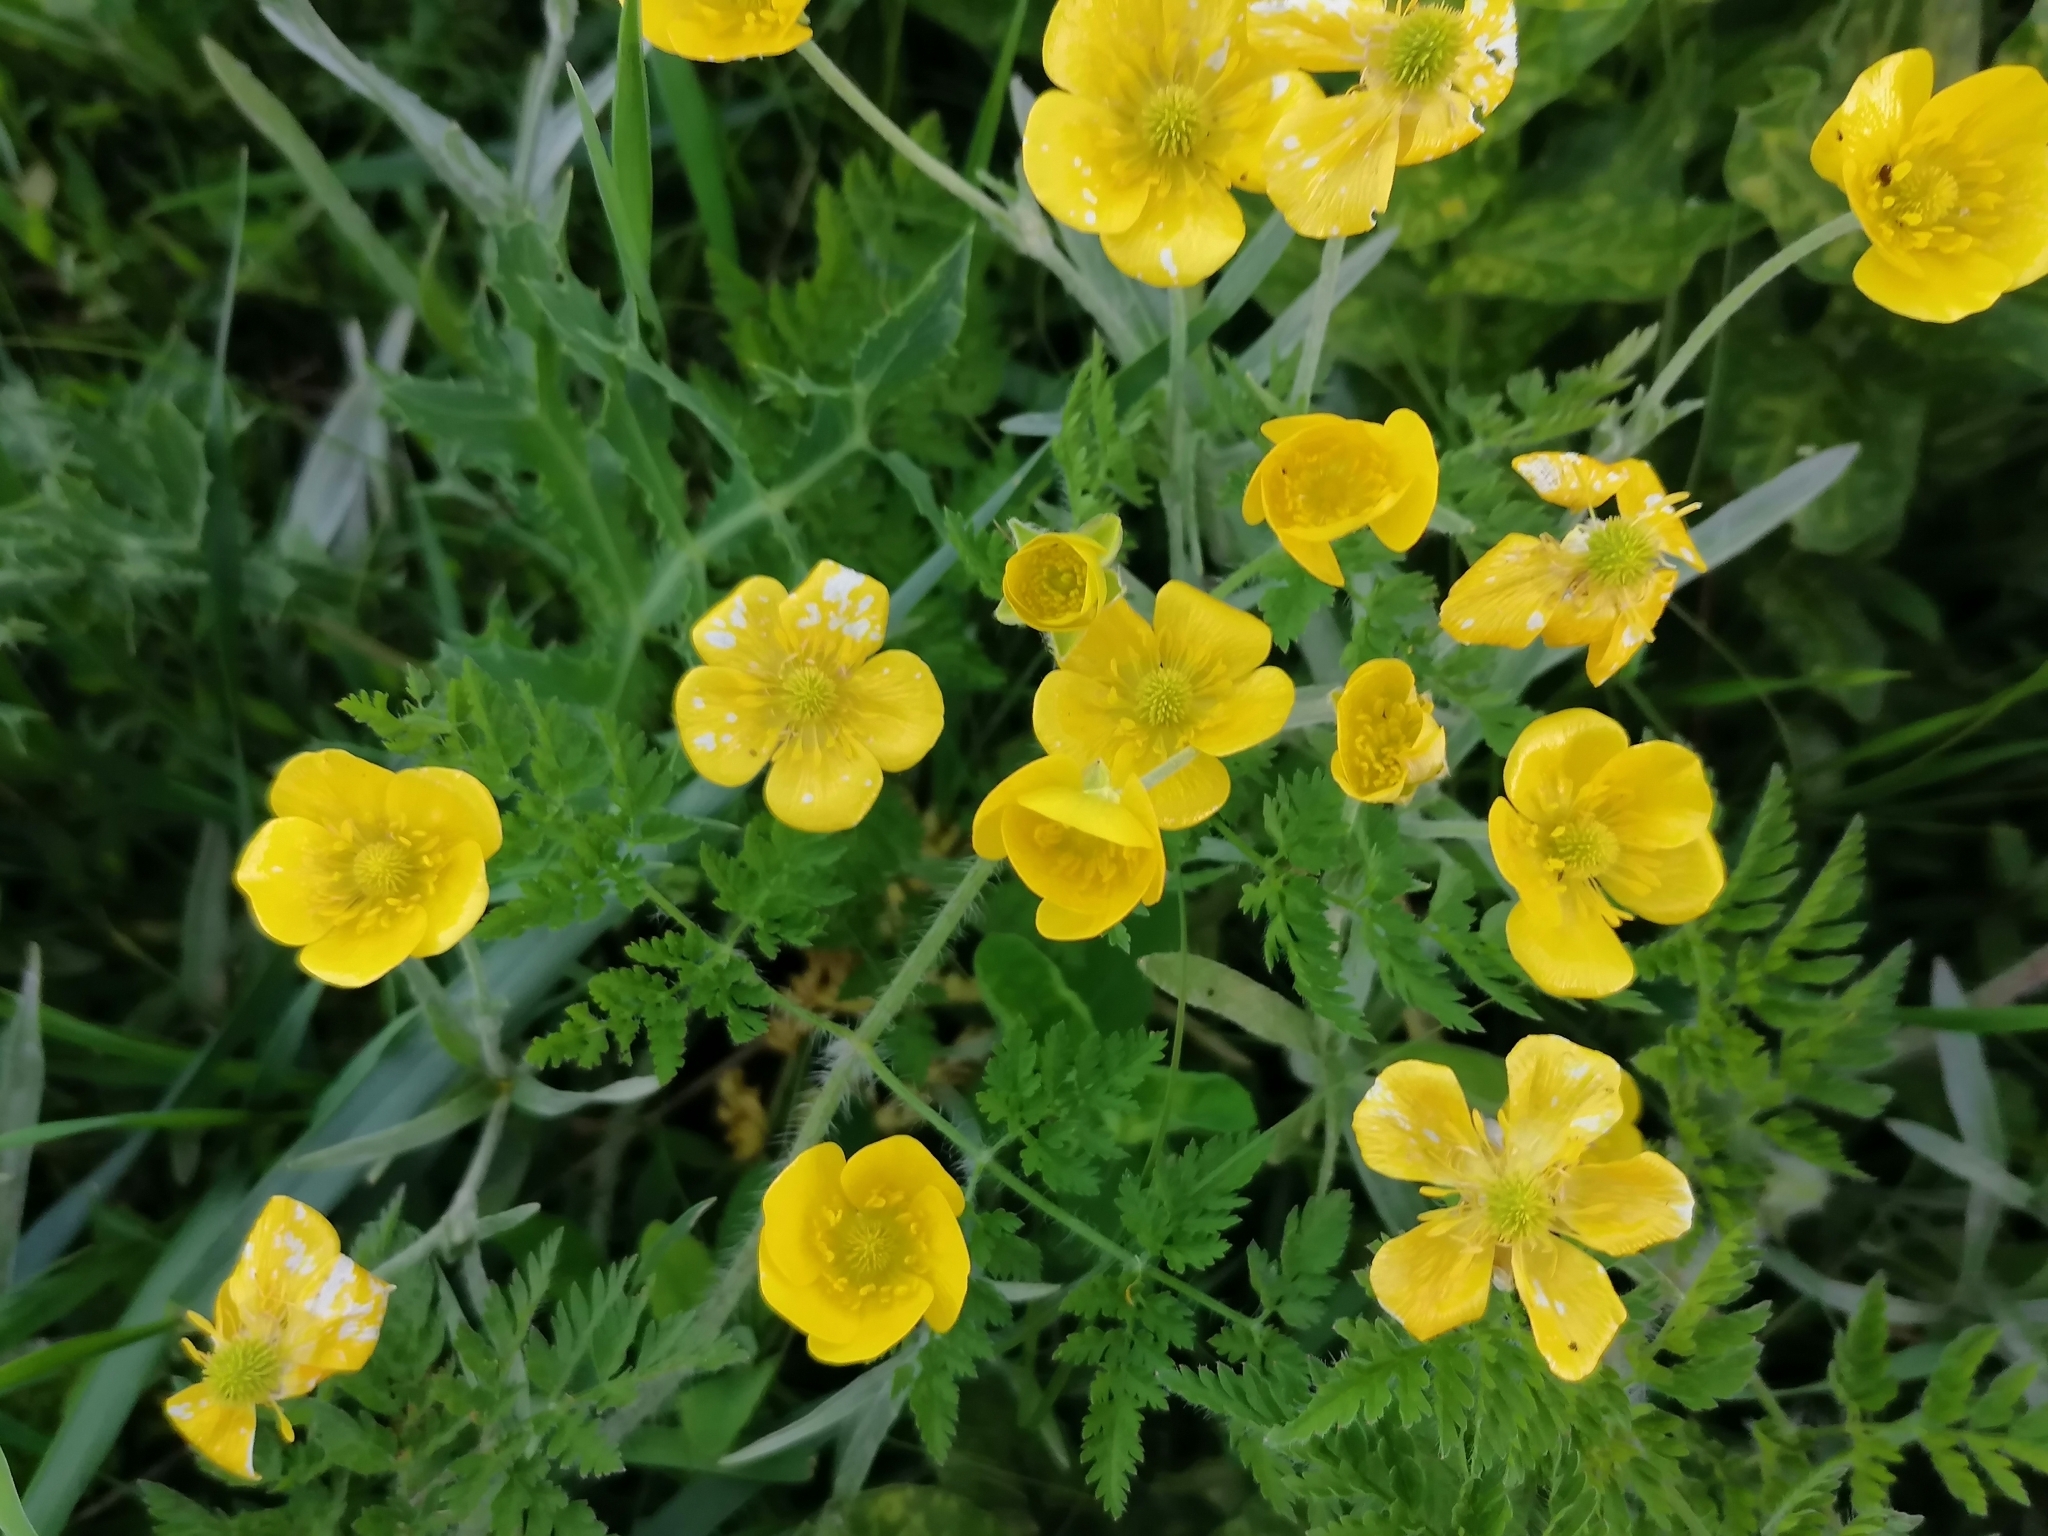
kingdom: Plantae
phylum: Tracheophyta
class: Magnoliopsida
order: Ranunculales
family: Ranunculaceae
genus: Ranunculus
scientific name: Ranunculus illyricus
